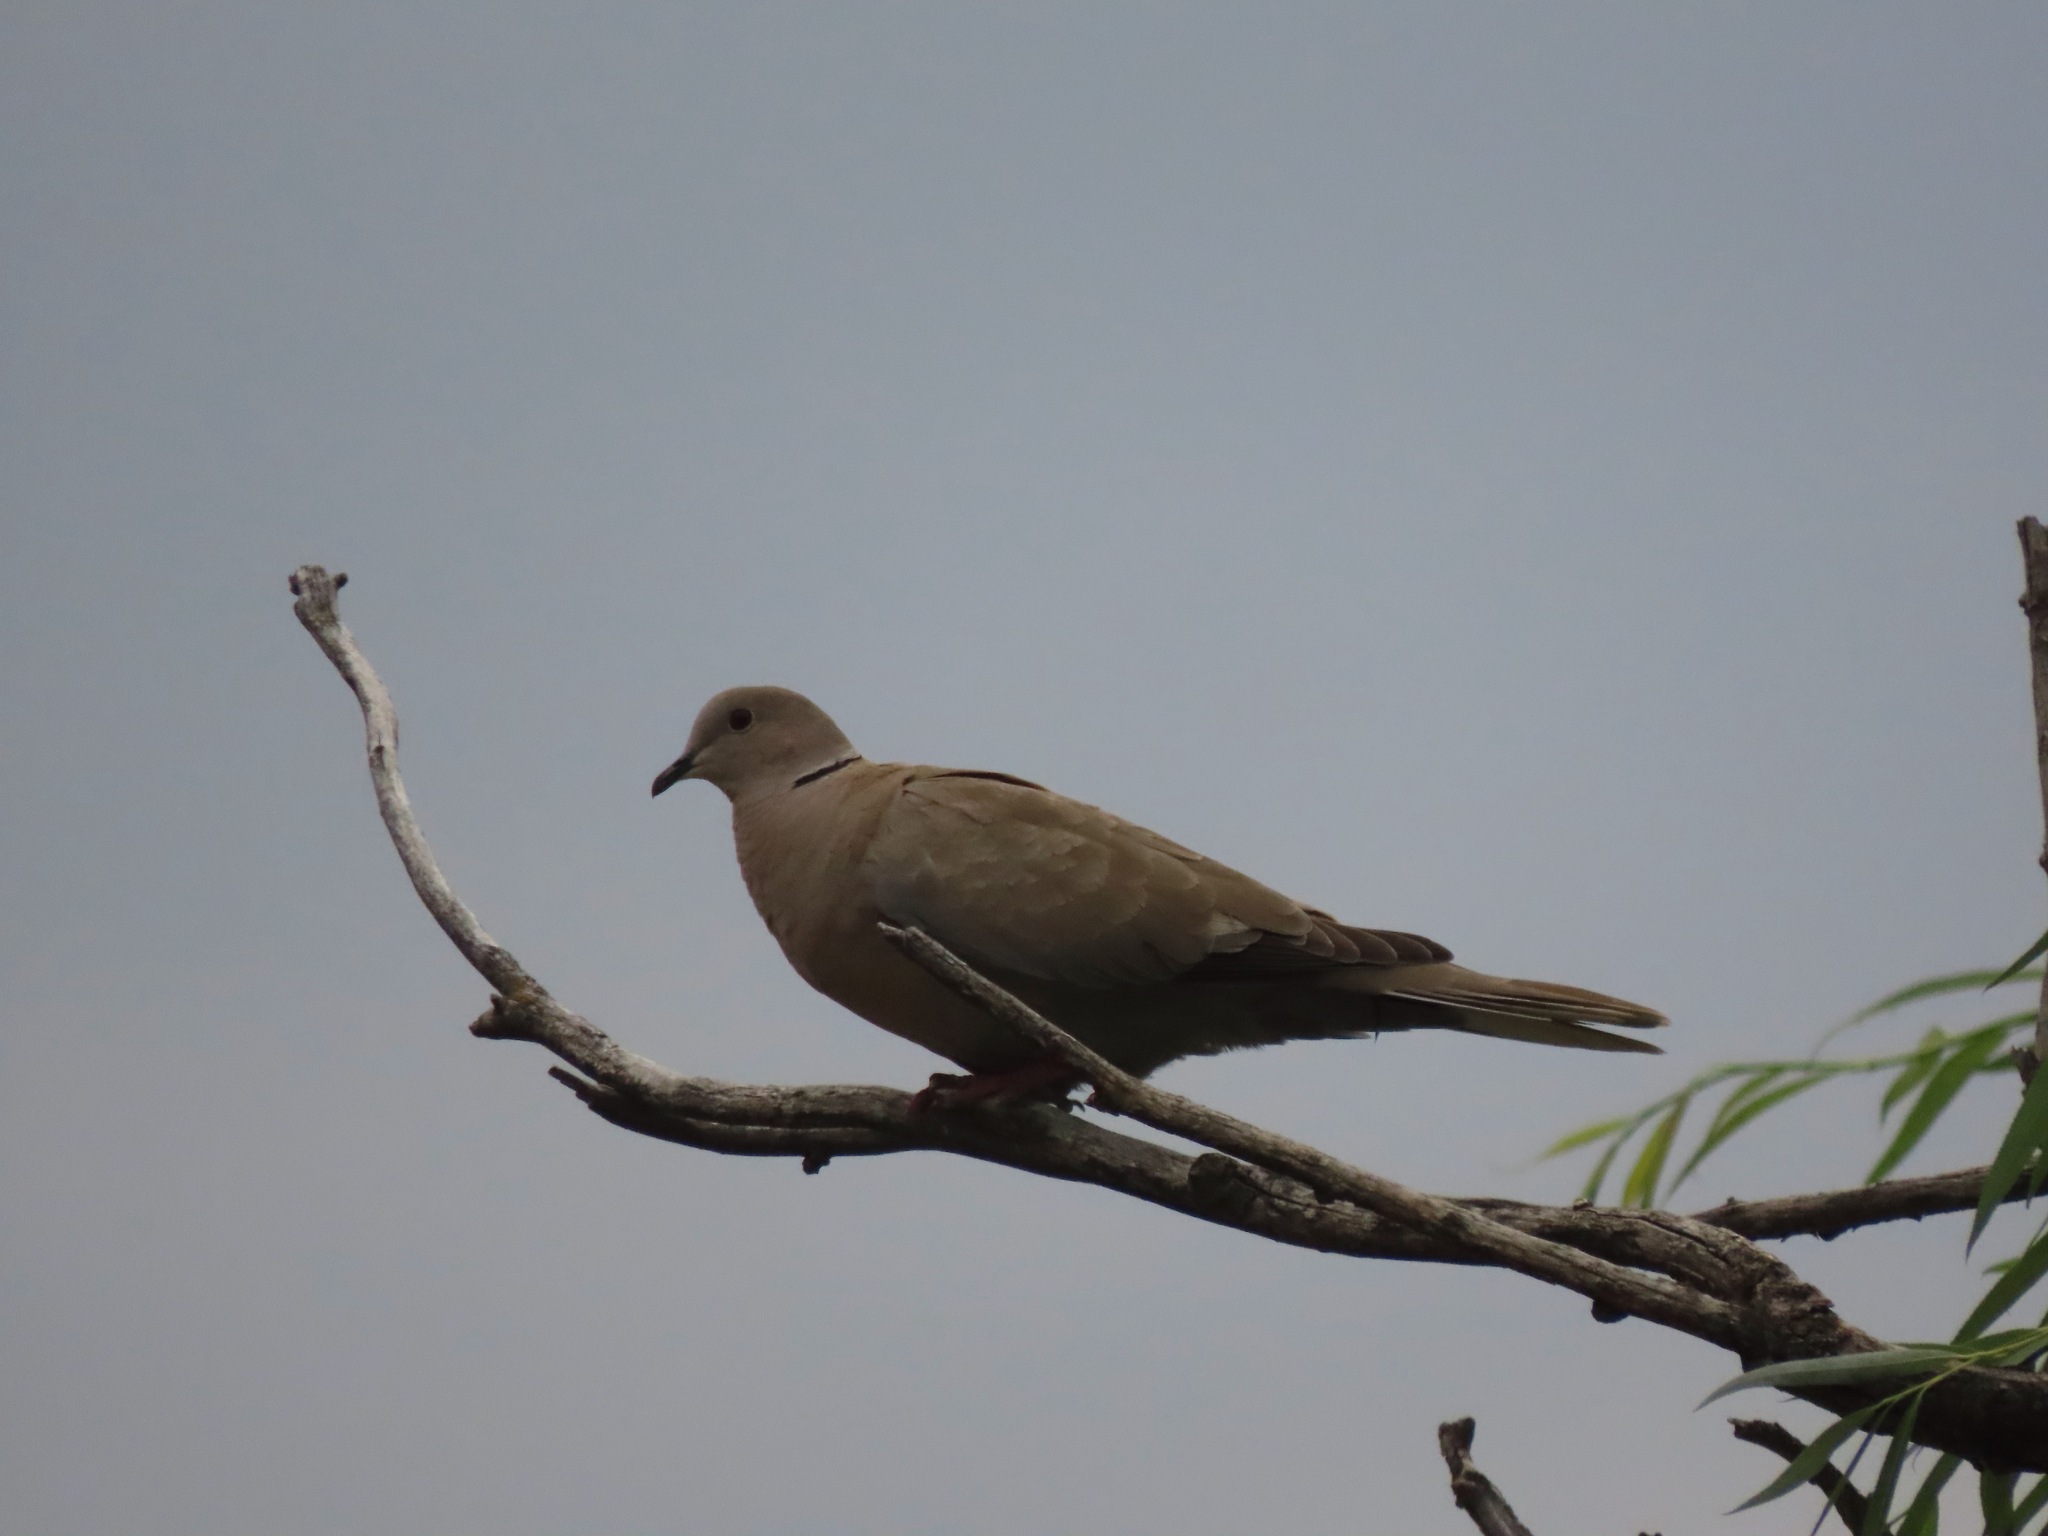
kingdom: Animalia
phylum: Chordata
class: Aves
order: Columbiformes
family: Columbidae
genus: Streptopelia
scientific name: Streptopelia decaocto
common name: Eurasian collared dove
